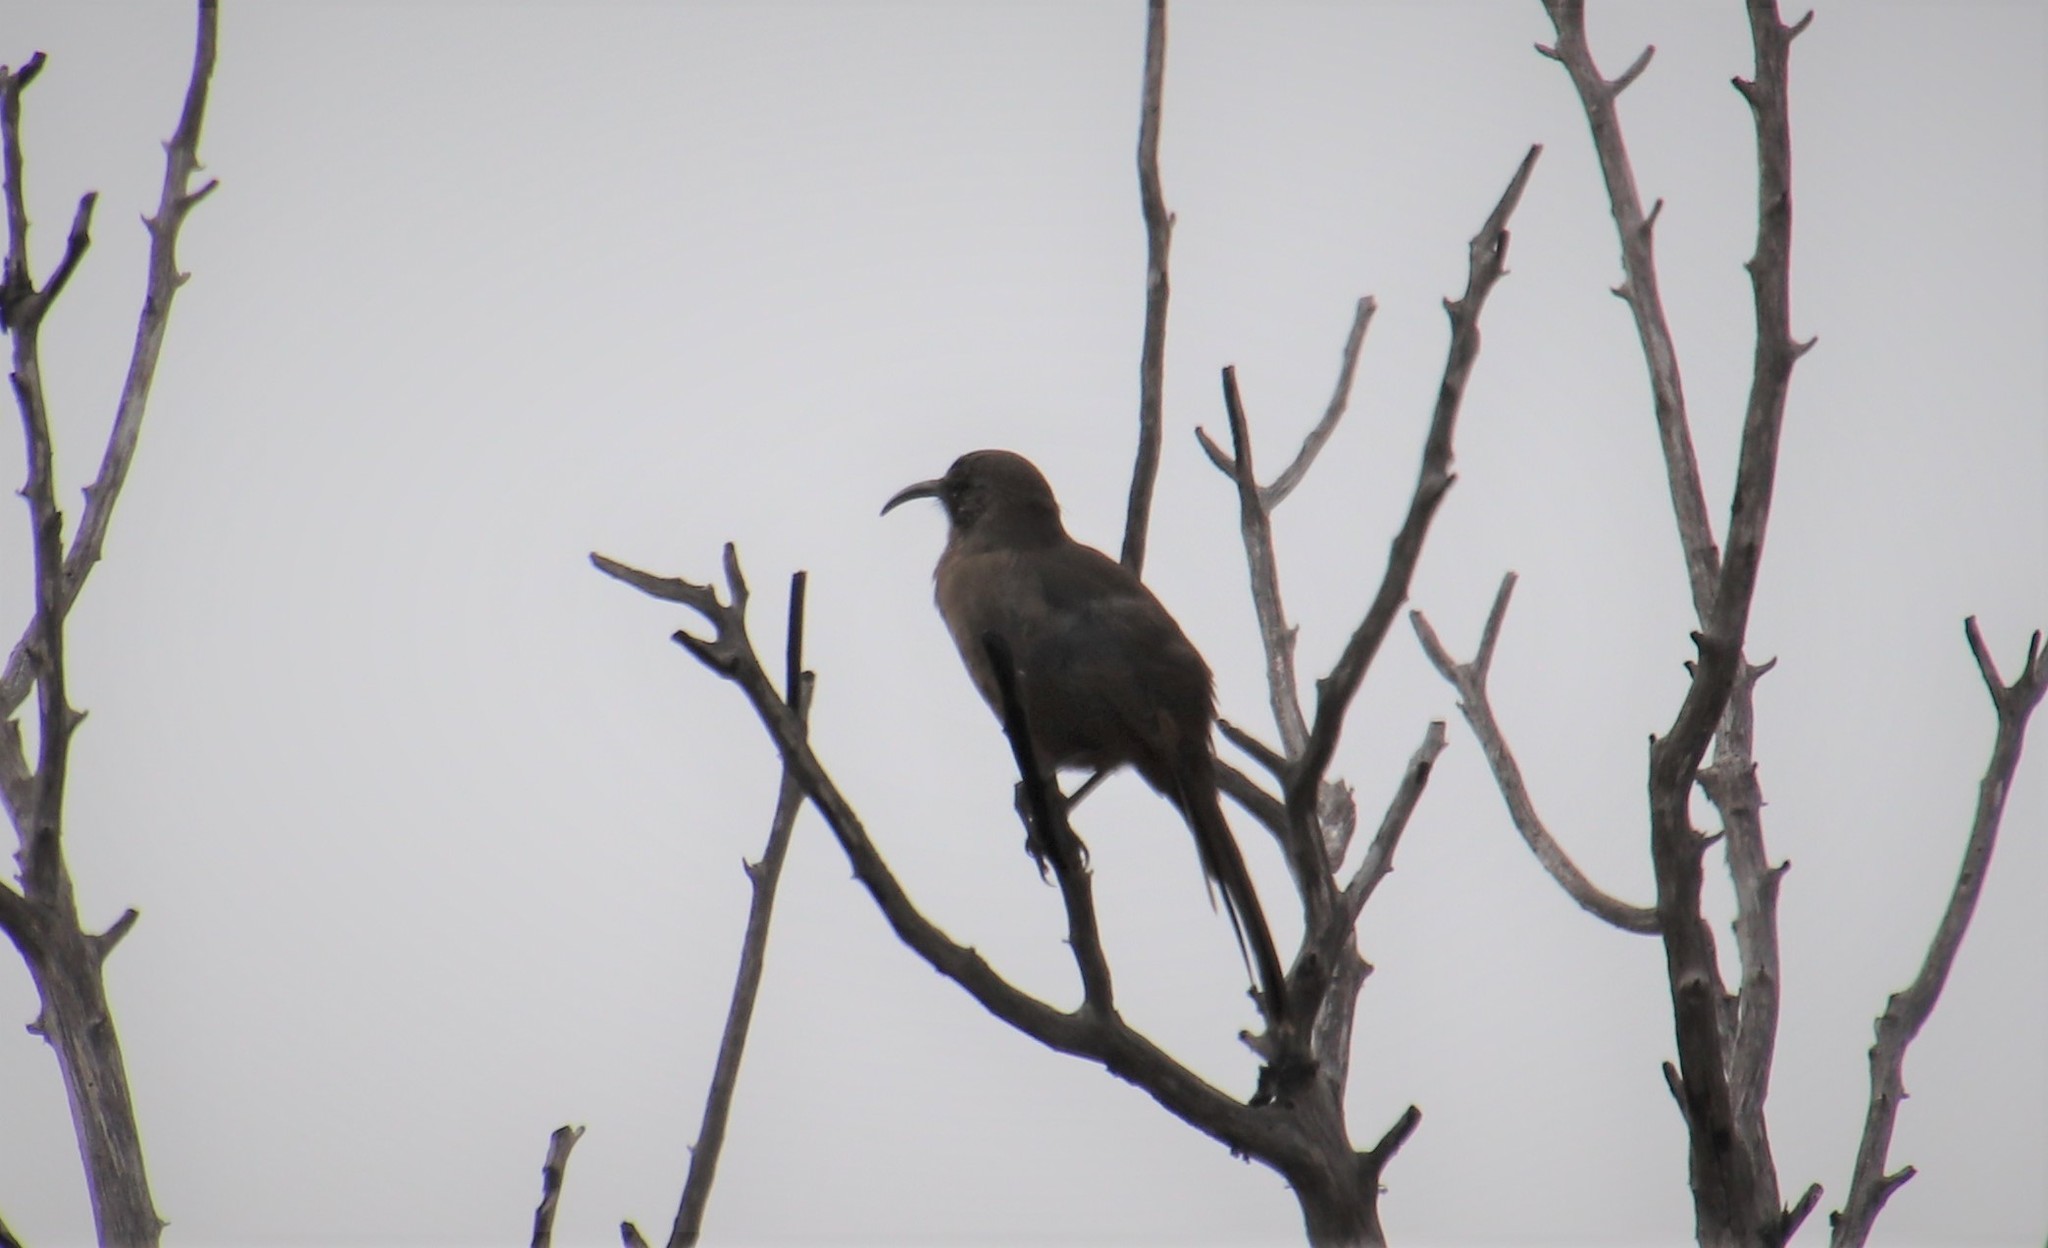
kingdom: Animalia
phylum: Chordata
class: Aves
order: Passeriformes
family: Mimidae
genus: Toxostoma
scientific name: Toxostoma redivivum
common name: California thrasher
